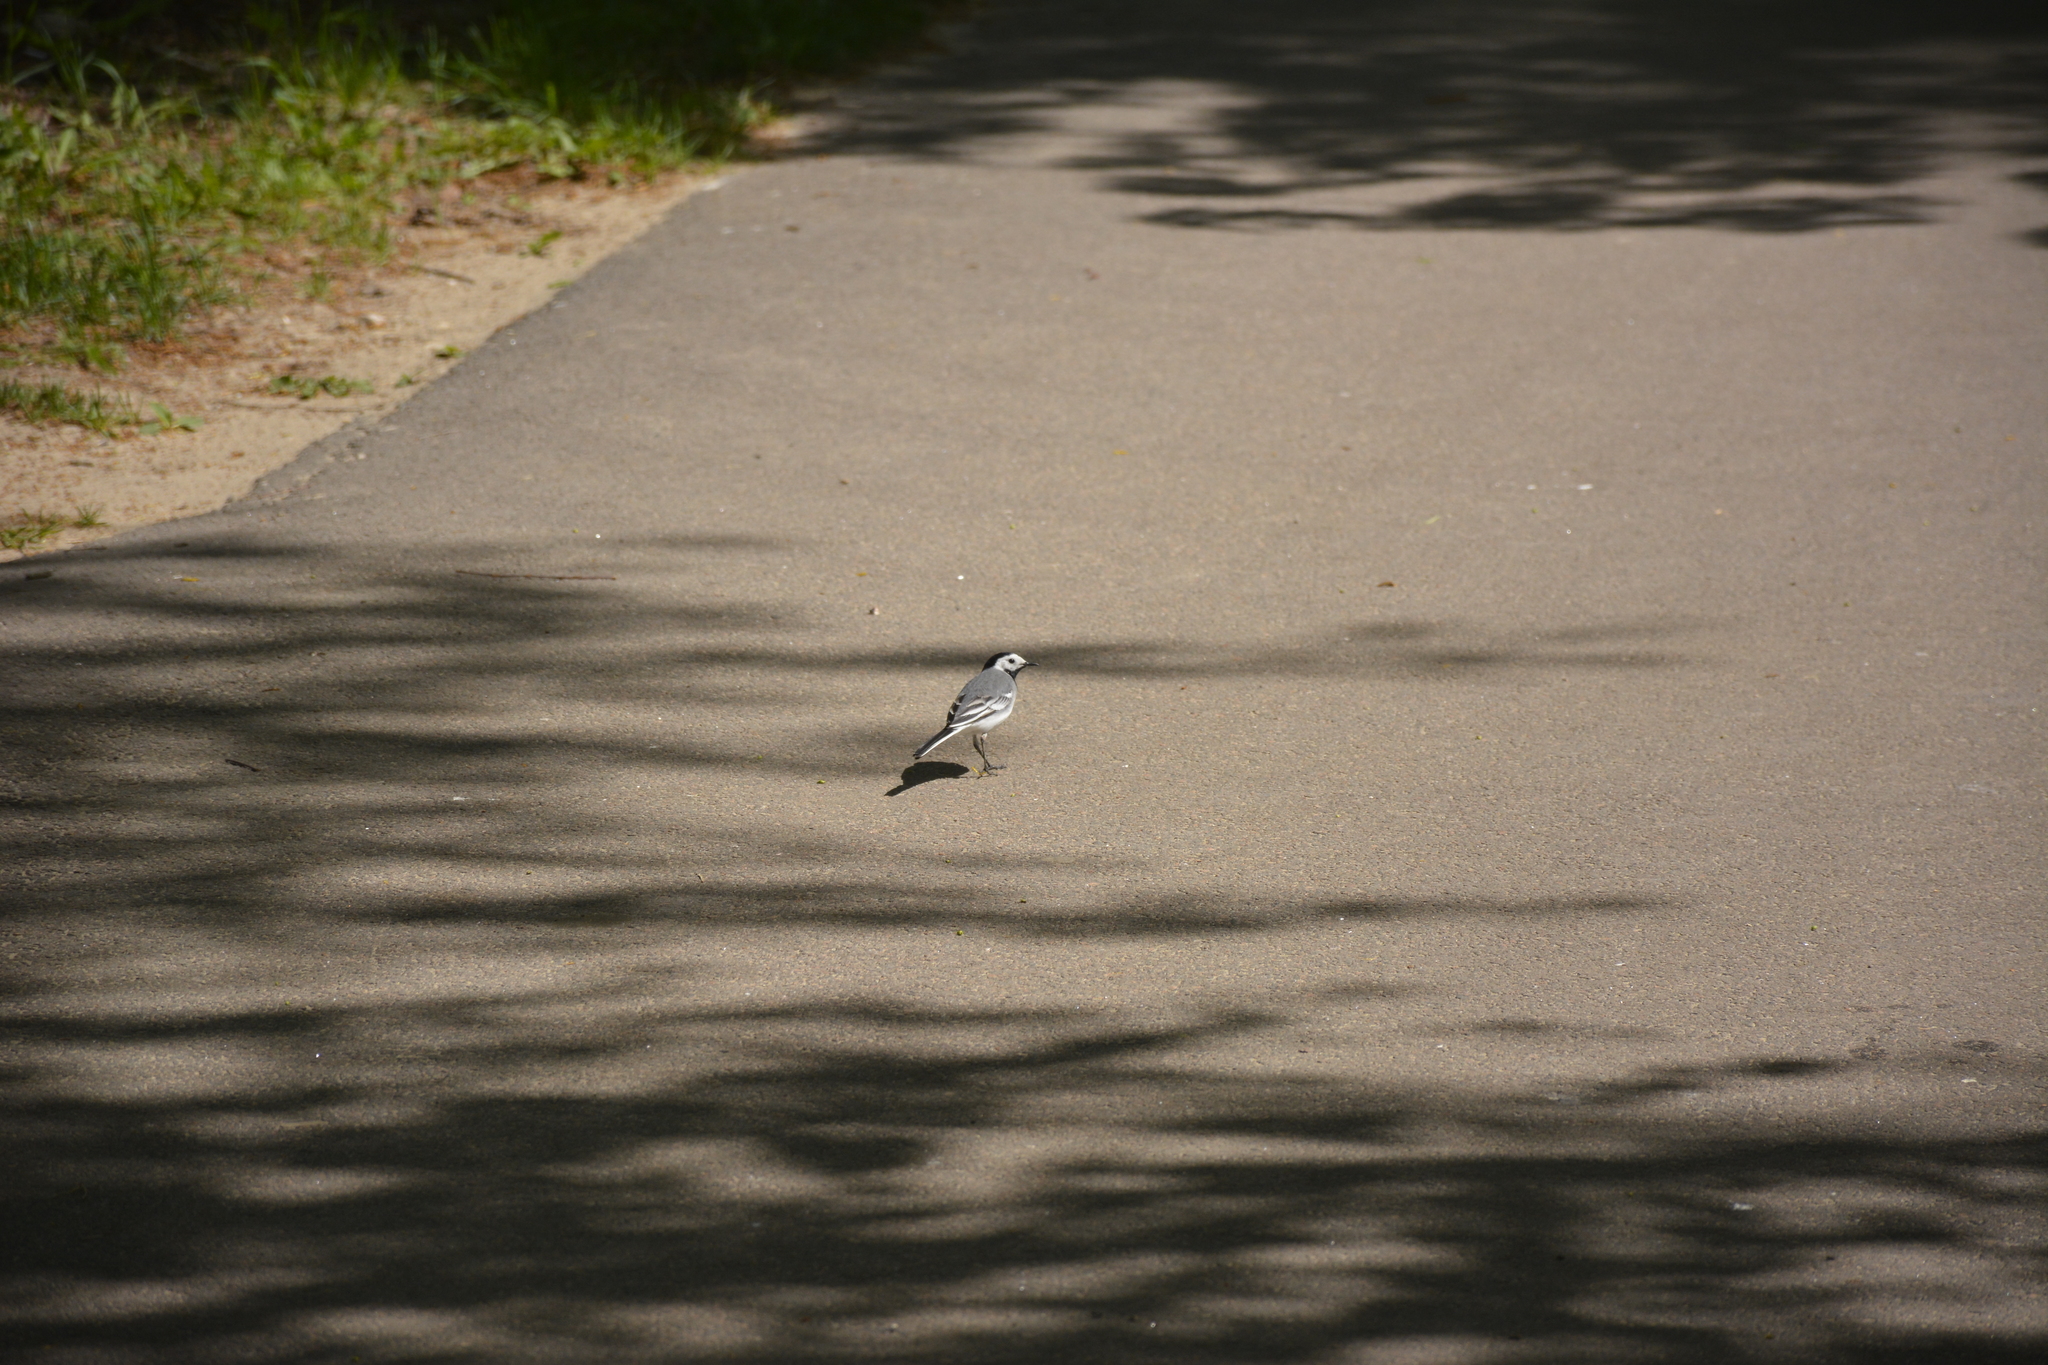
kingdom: Animalia
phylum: Chordata
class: Aves
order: Passeriformes
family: Motacillidae
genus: Motacilla
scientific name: Motacilla alba
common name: White wagtail
